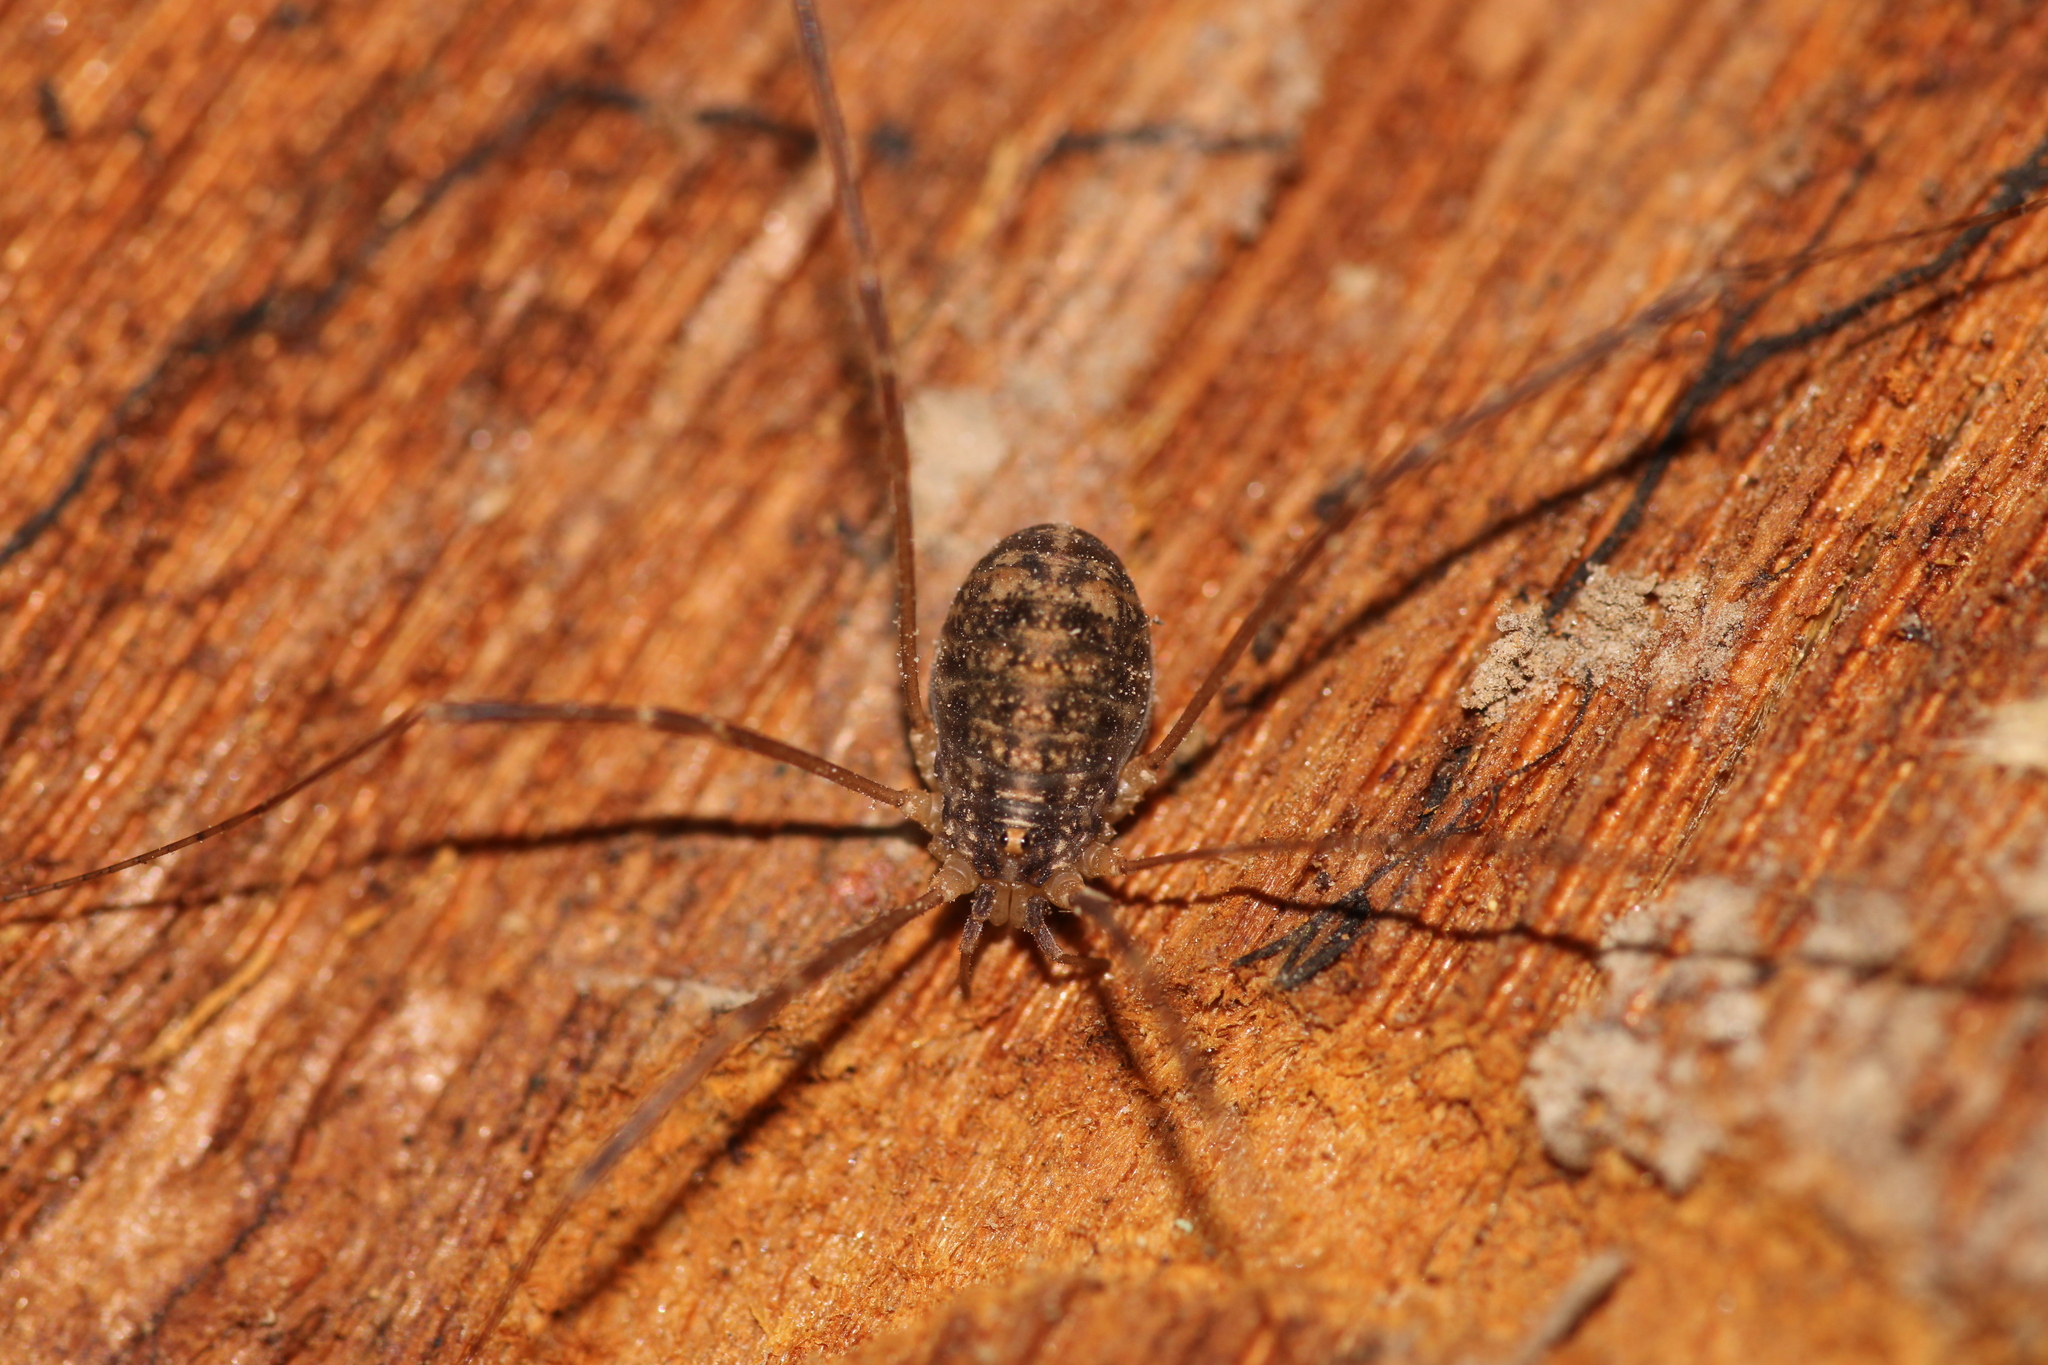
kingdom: Animalia
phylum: Arthropoda
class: Arachnida
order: Opiliones
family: Sclerosomatidae
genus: Nelima
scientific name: Nelima silvatica
